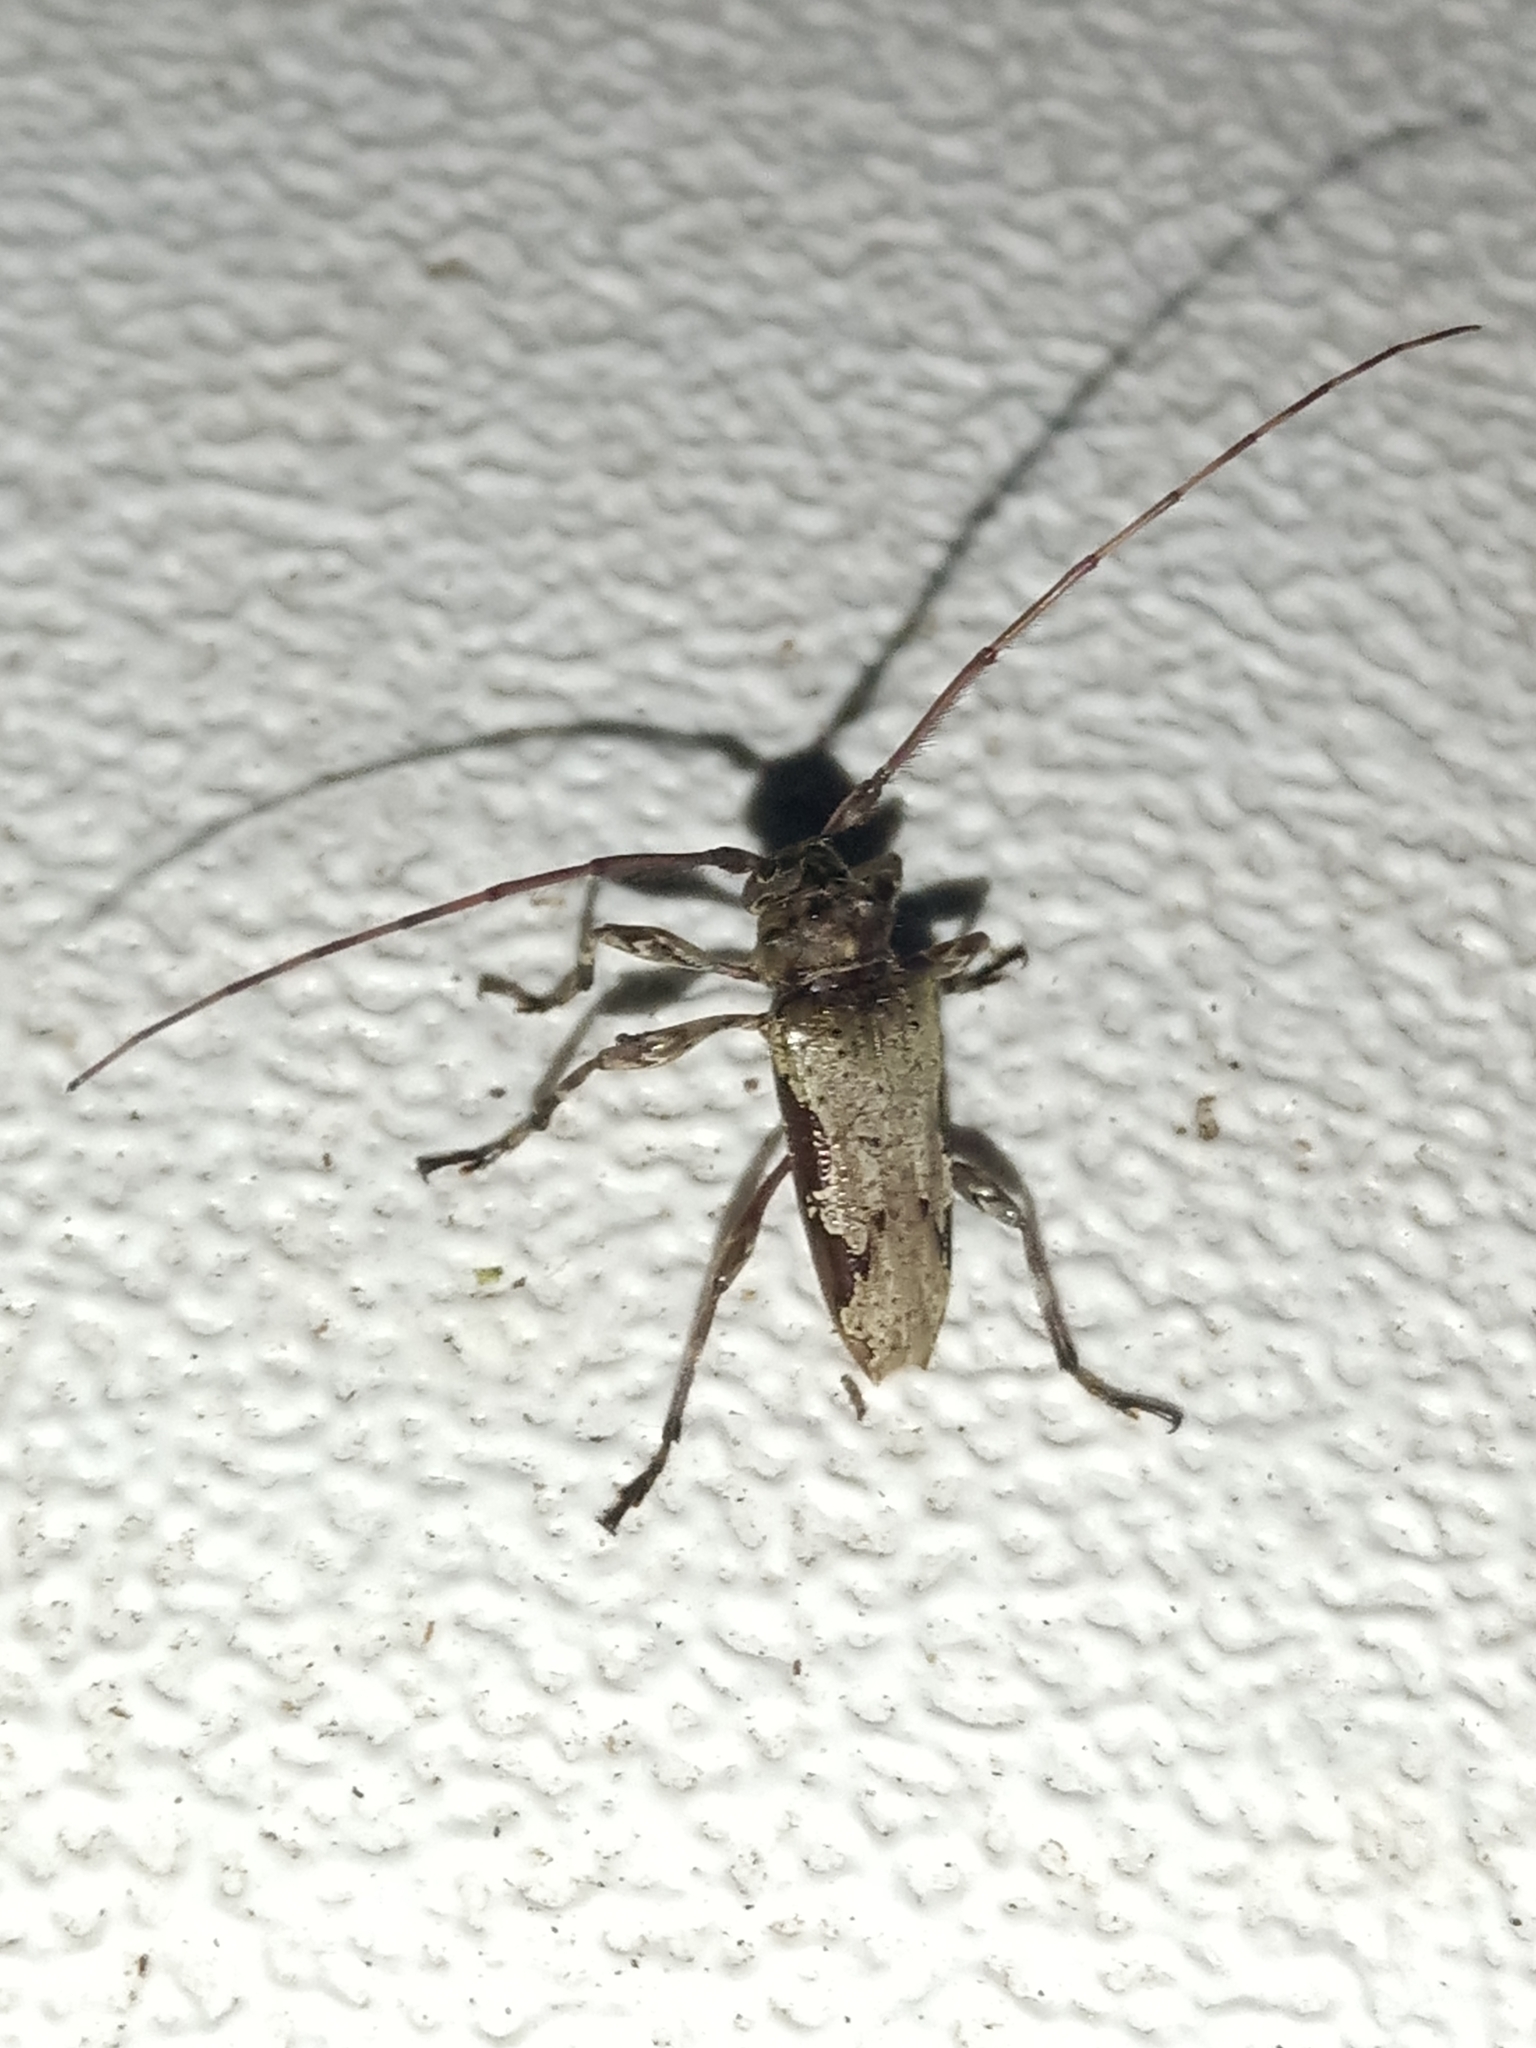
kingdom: Animalia
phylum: Arthropoda
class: Insecta
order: Coleoptera
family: Cerambycidae
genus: Oreodera
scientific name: Oreodera bituberculata
